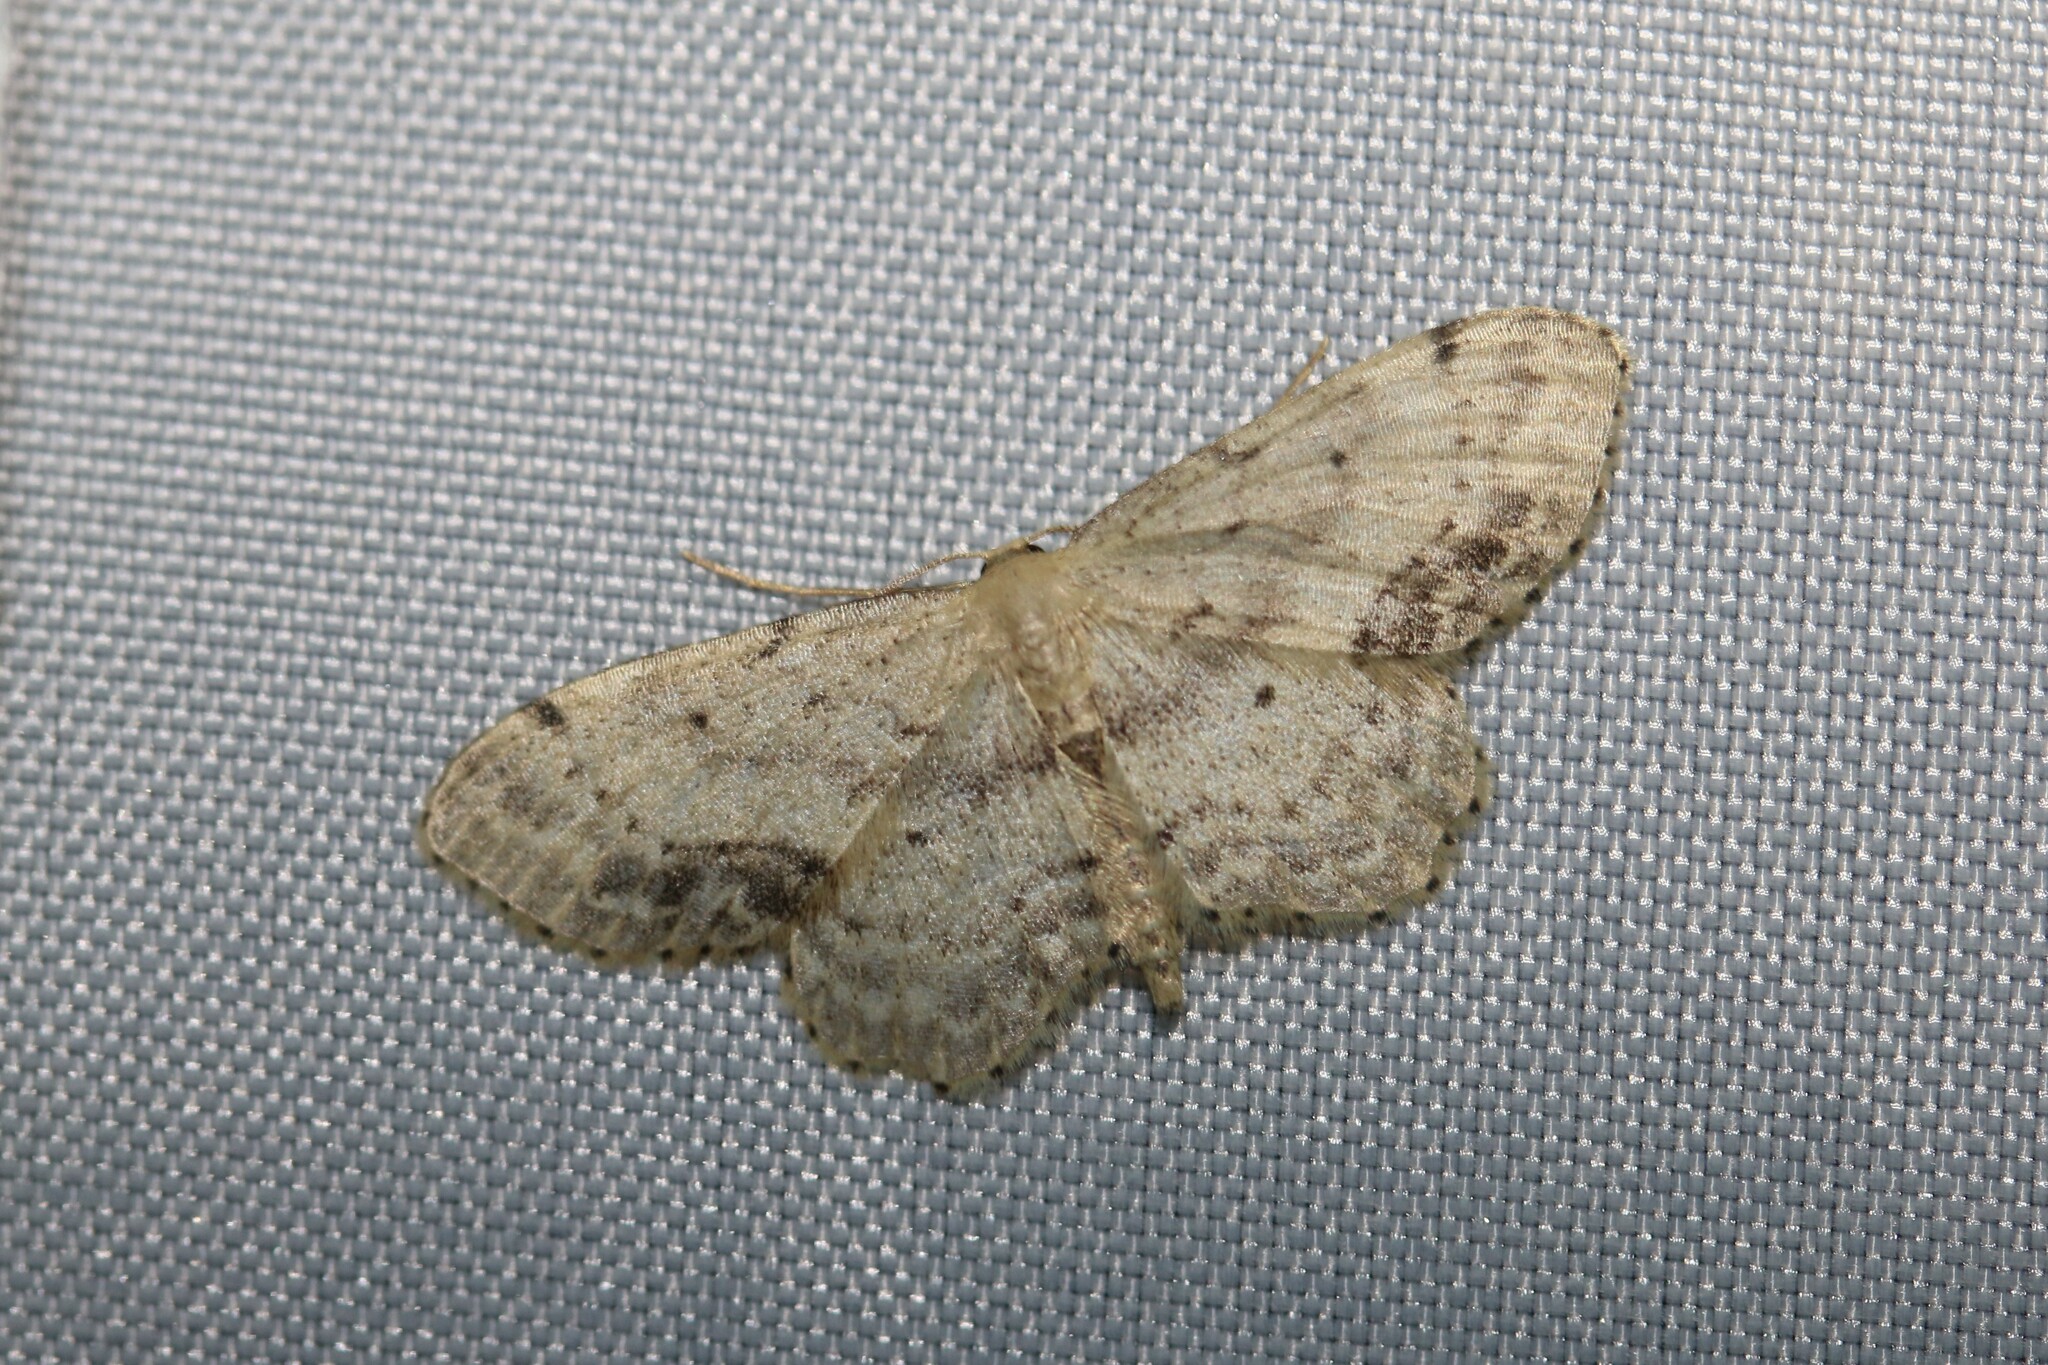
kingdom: Animalia
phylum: Arthropoda
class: Insecta
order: Lepidoptera
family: Geometridae
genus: Idaea
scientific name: Idaea dimidiata
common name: Single-dotted wave
